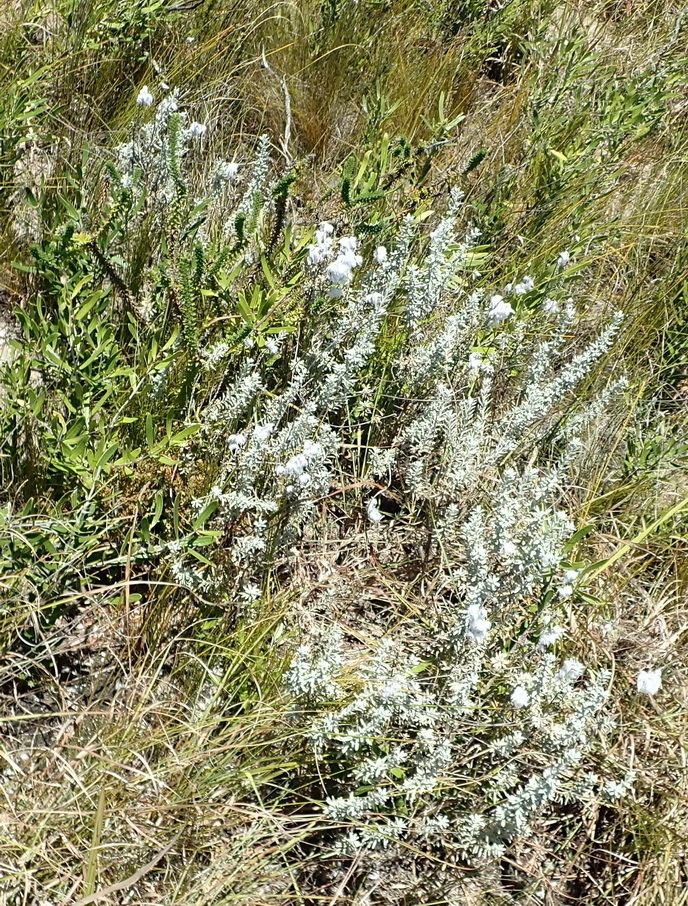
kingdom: Plantae
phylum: Tracheophyta
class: Magnoliopsida
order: Asterales
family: Asteraceae
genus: Eriocephalus
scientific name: Eriocephalus racemosus
